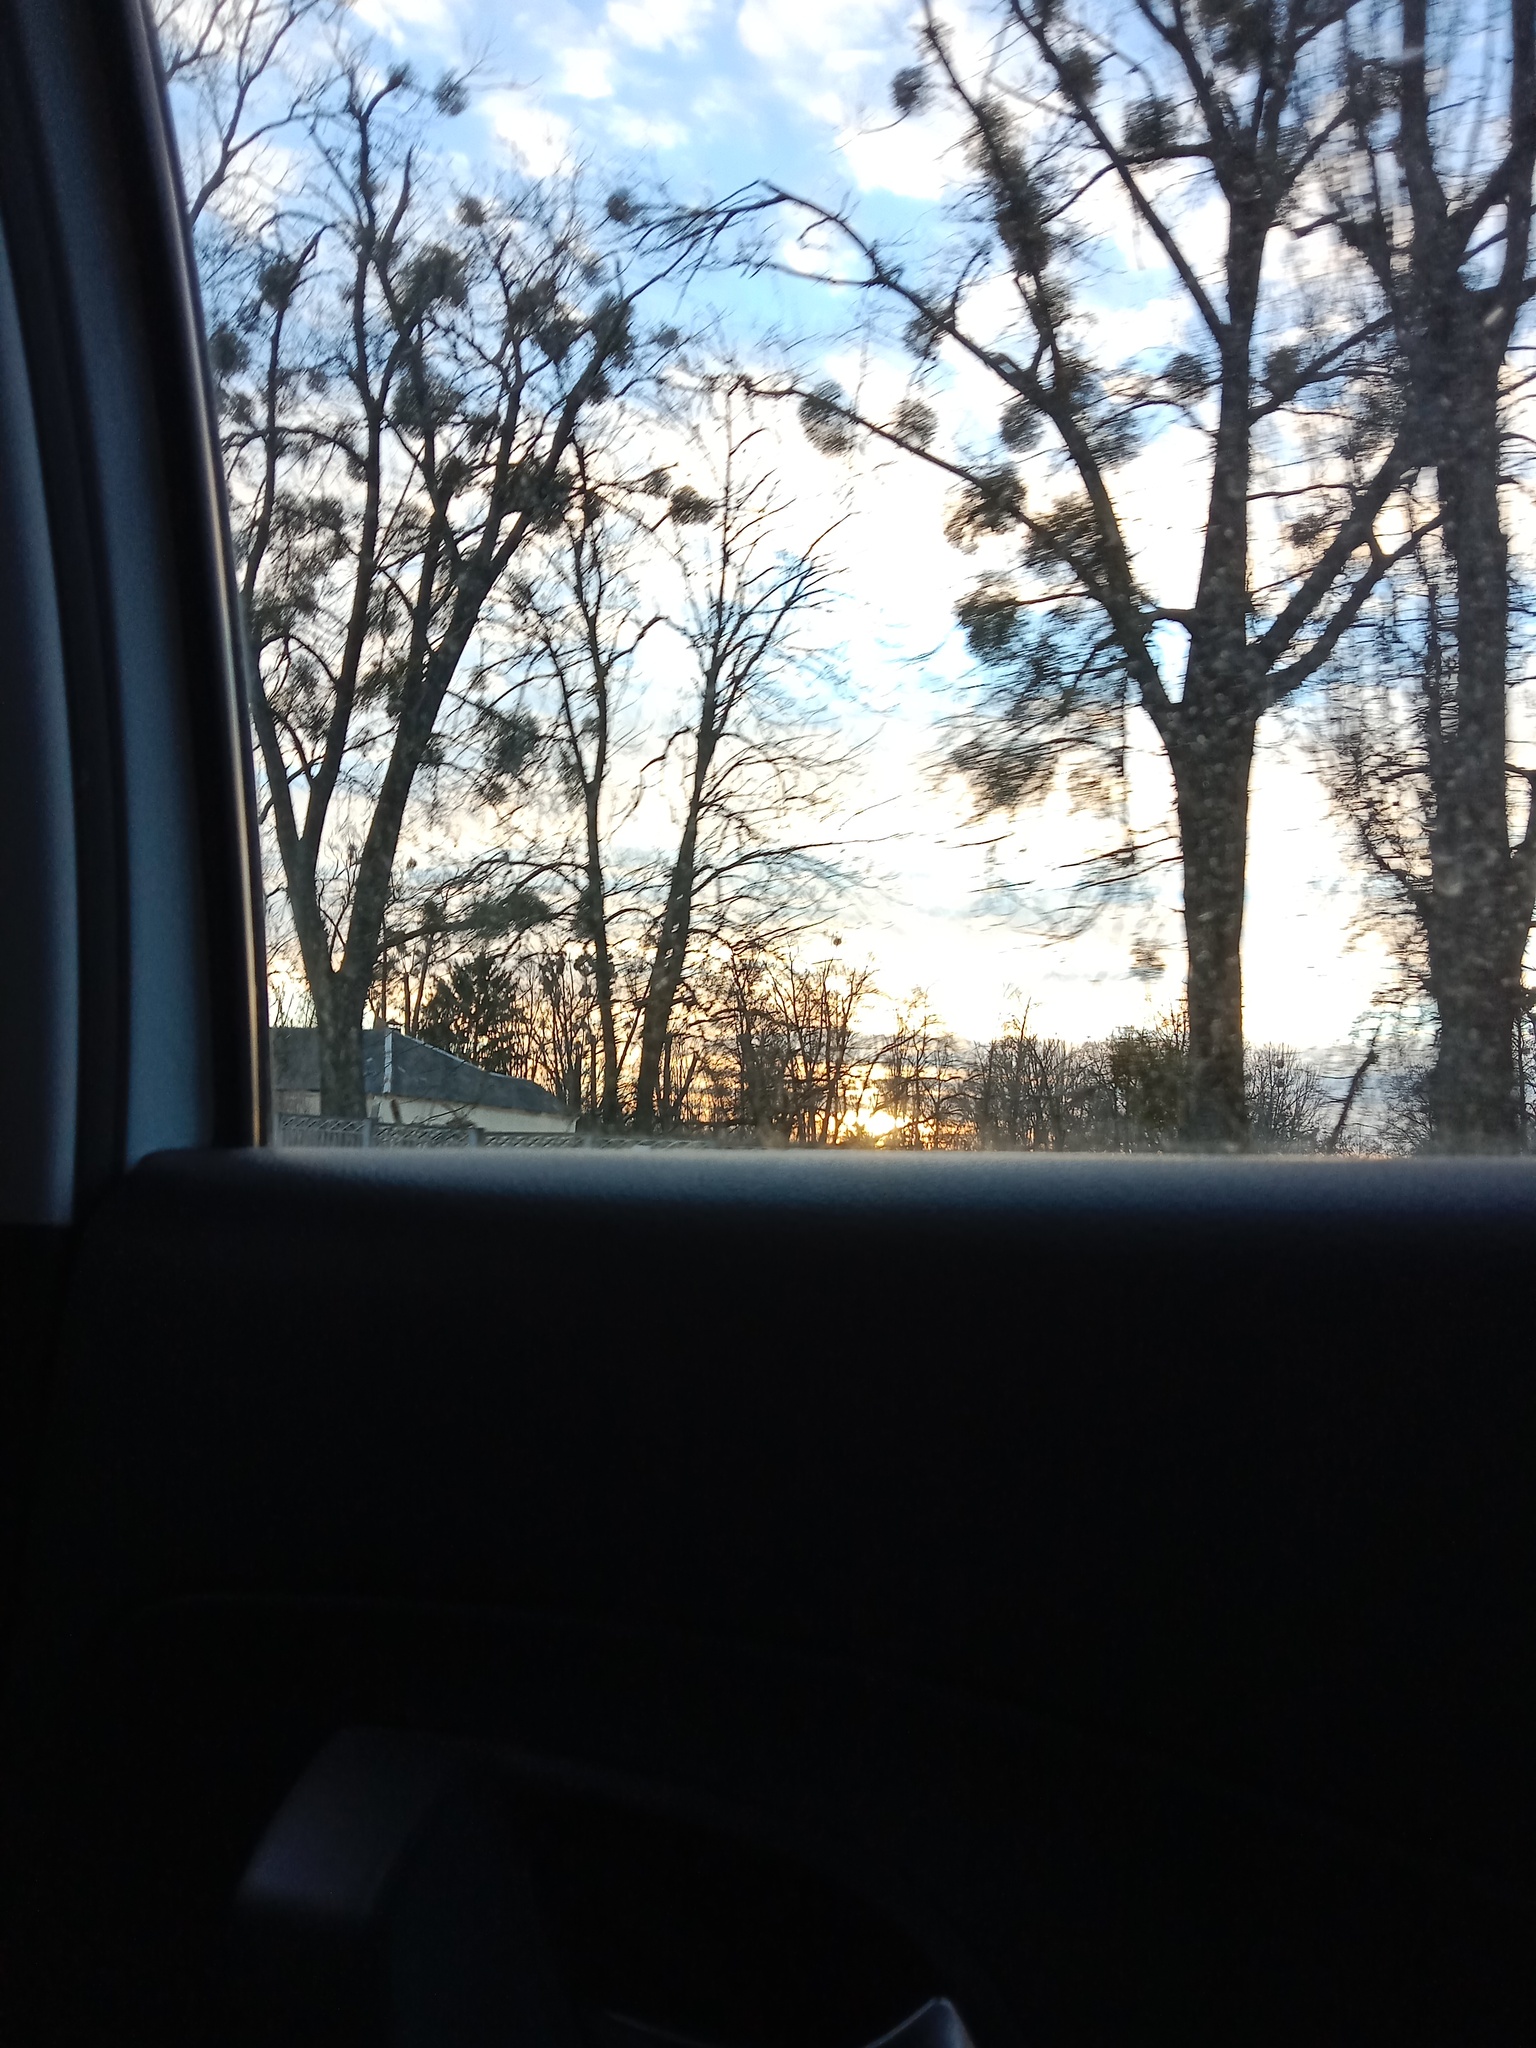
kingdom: Plantae
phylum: Tracheophyta
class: Magnoliopsida
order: Santalales
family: Viscaceae
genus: Viscum
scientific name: Viscum album
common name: Mistletoe
